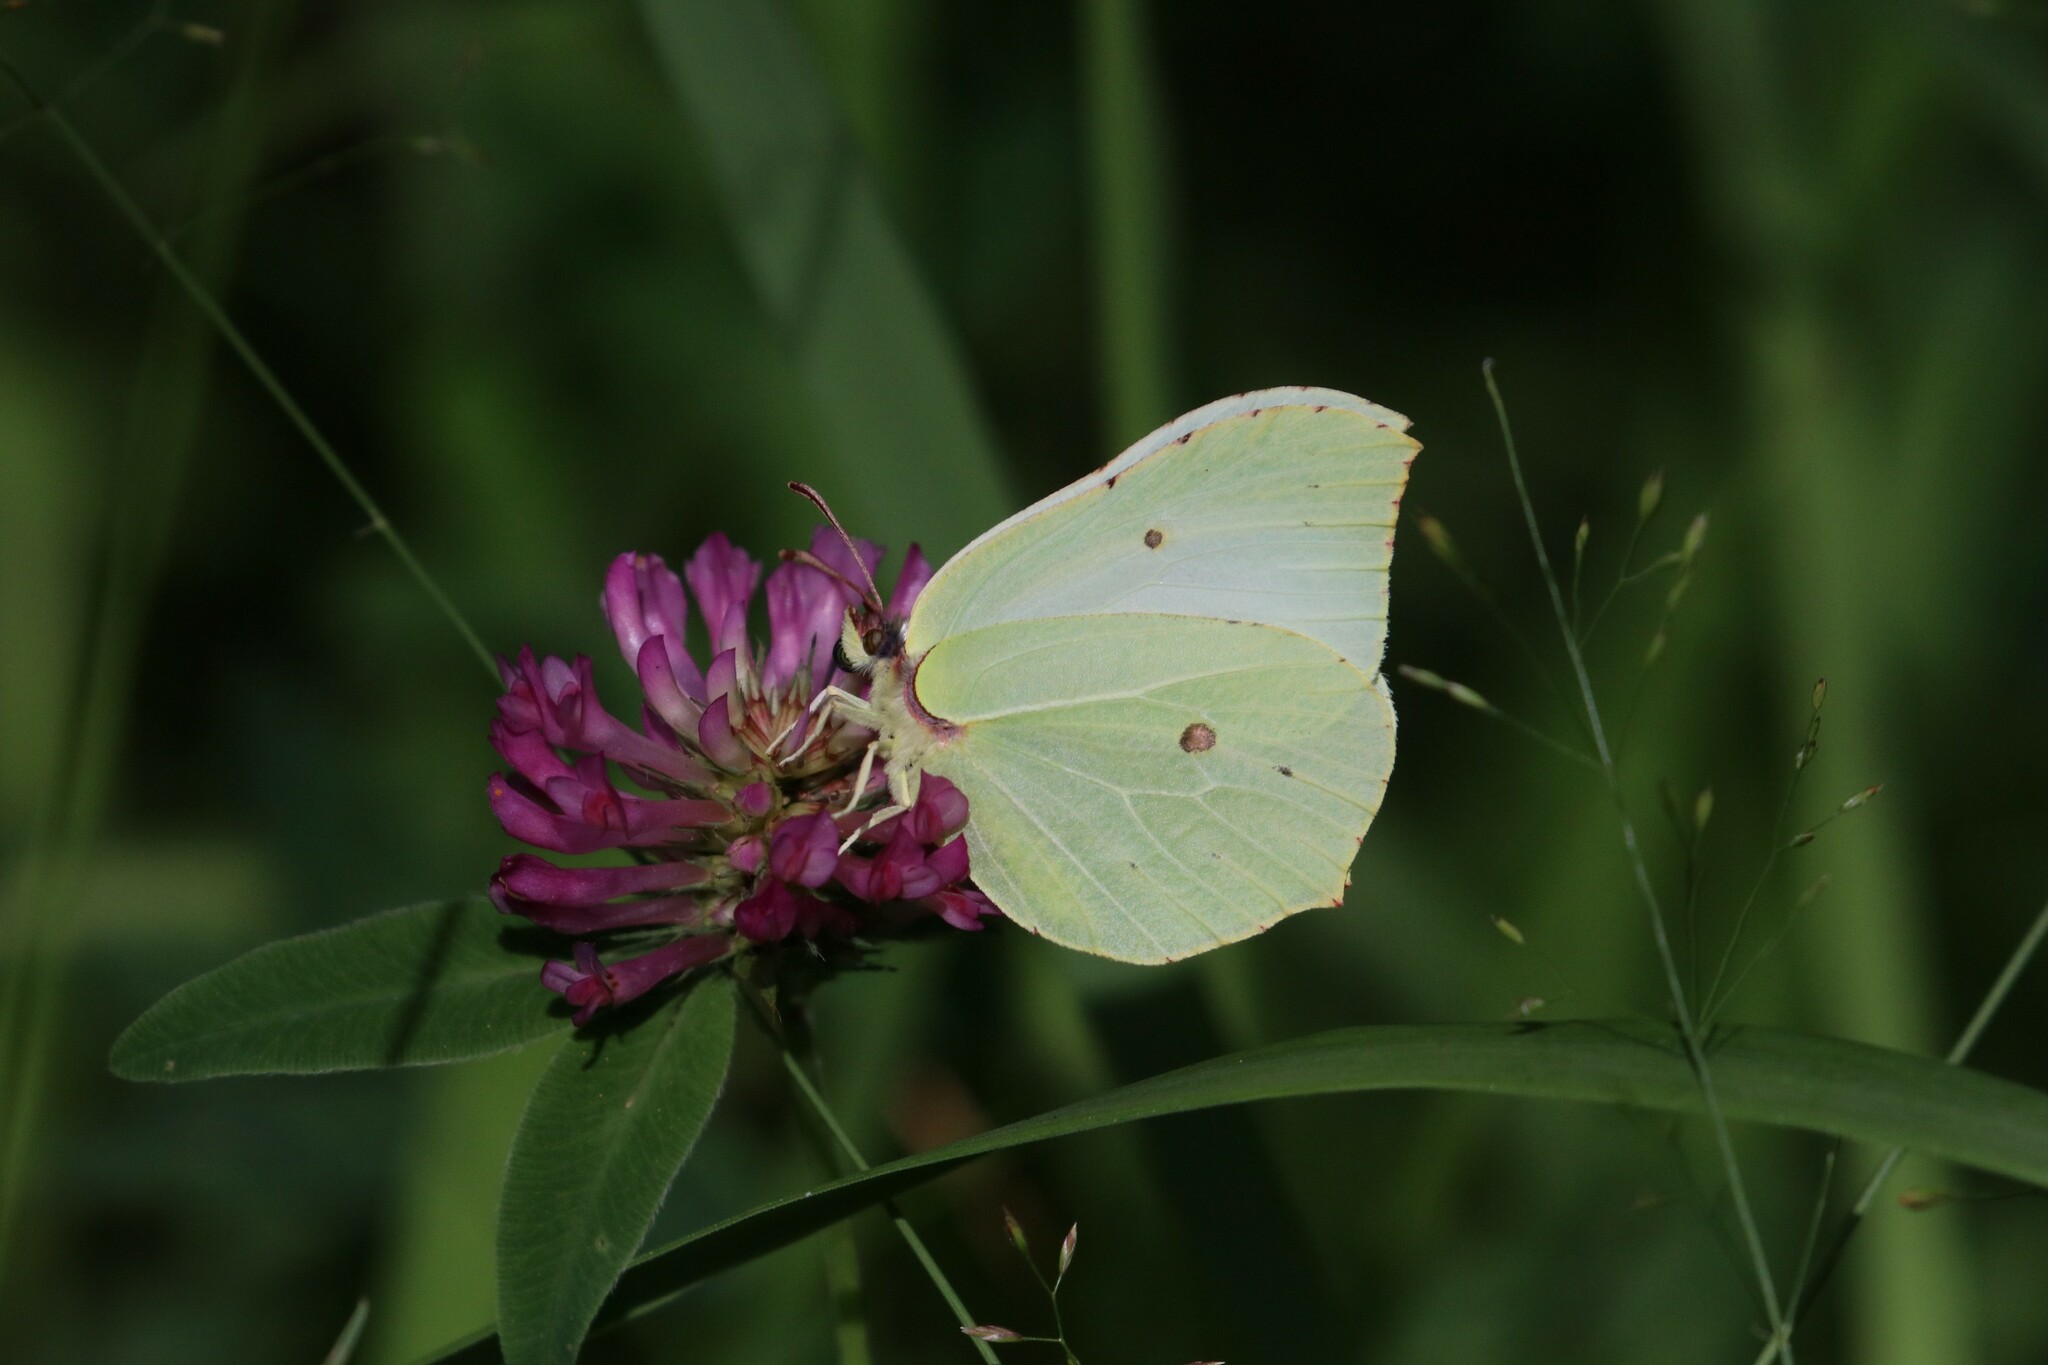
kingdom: Animalia
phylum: Arthropoda
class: Insecta
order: Lepidoptera
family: Pieridae
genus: Gonepteryx
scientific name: Gonepteryx rhamni
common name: Brimstone
